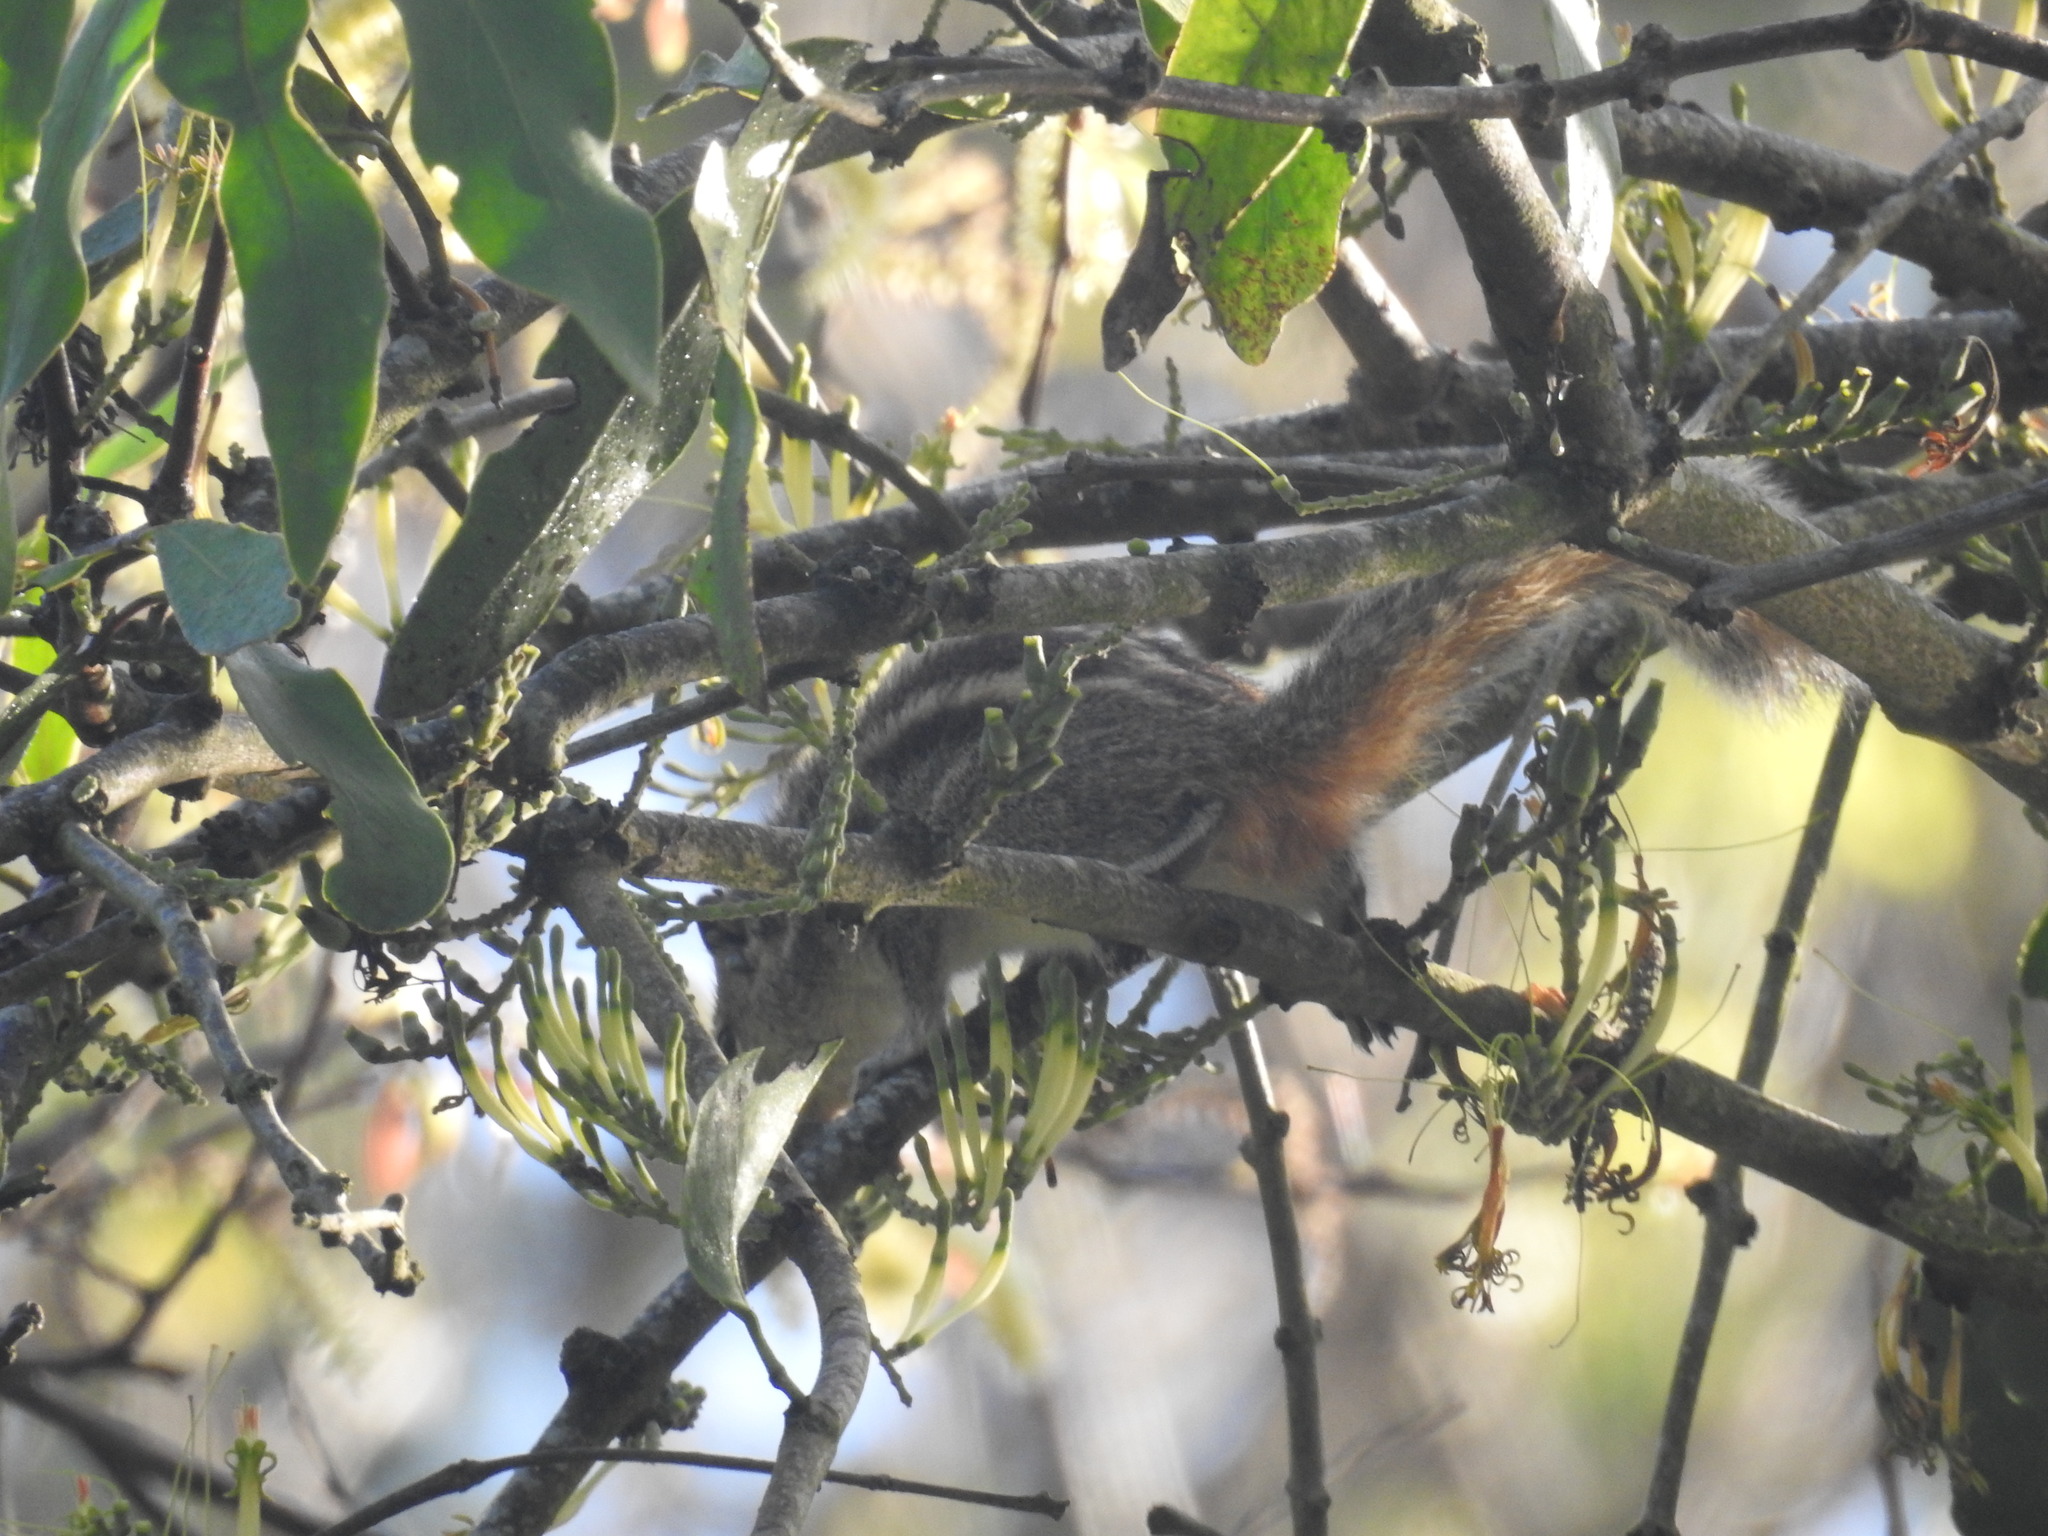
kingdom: Animalia
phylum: Chordata
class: Mammalia
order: Rodentia
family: Sciuridae
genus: Funambulus
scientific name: Funambulus palmarum
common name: Indian palm squirrel
